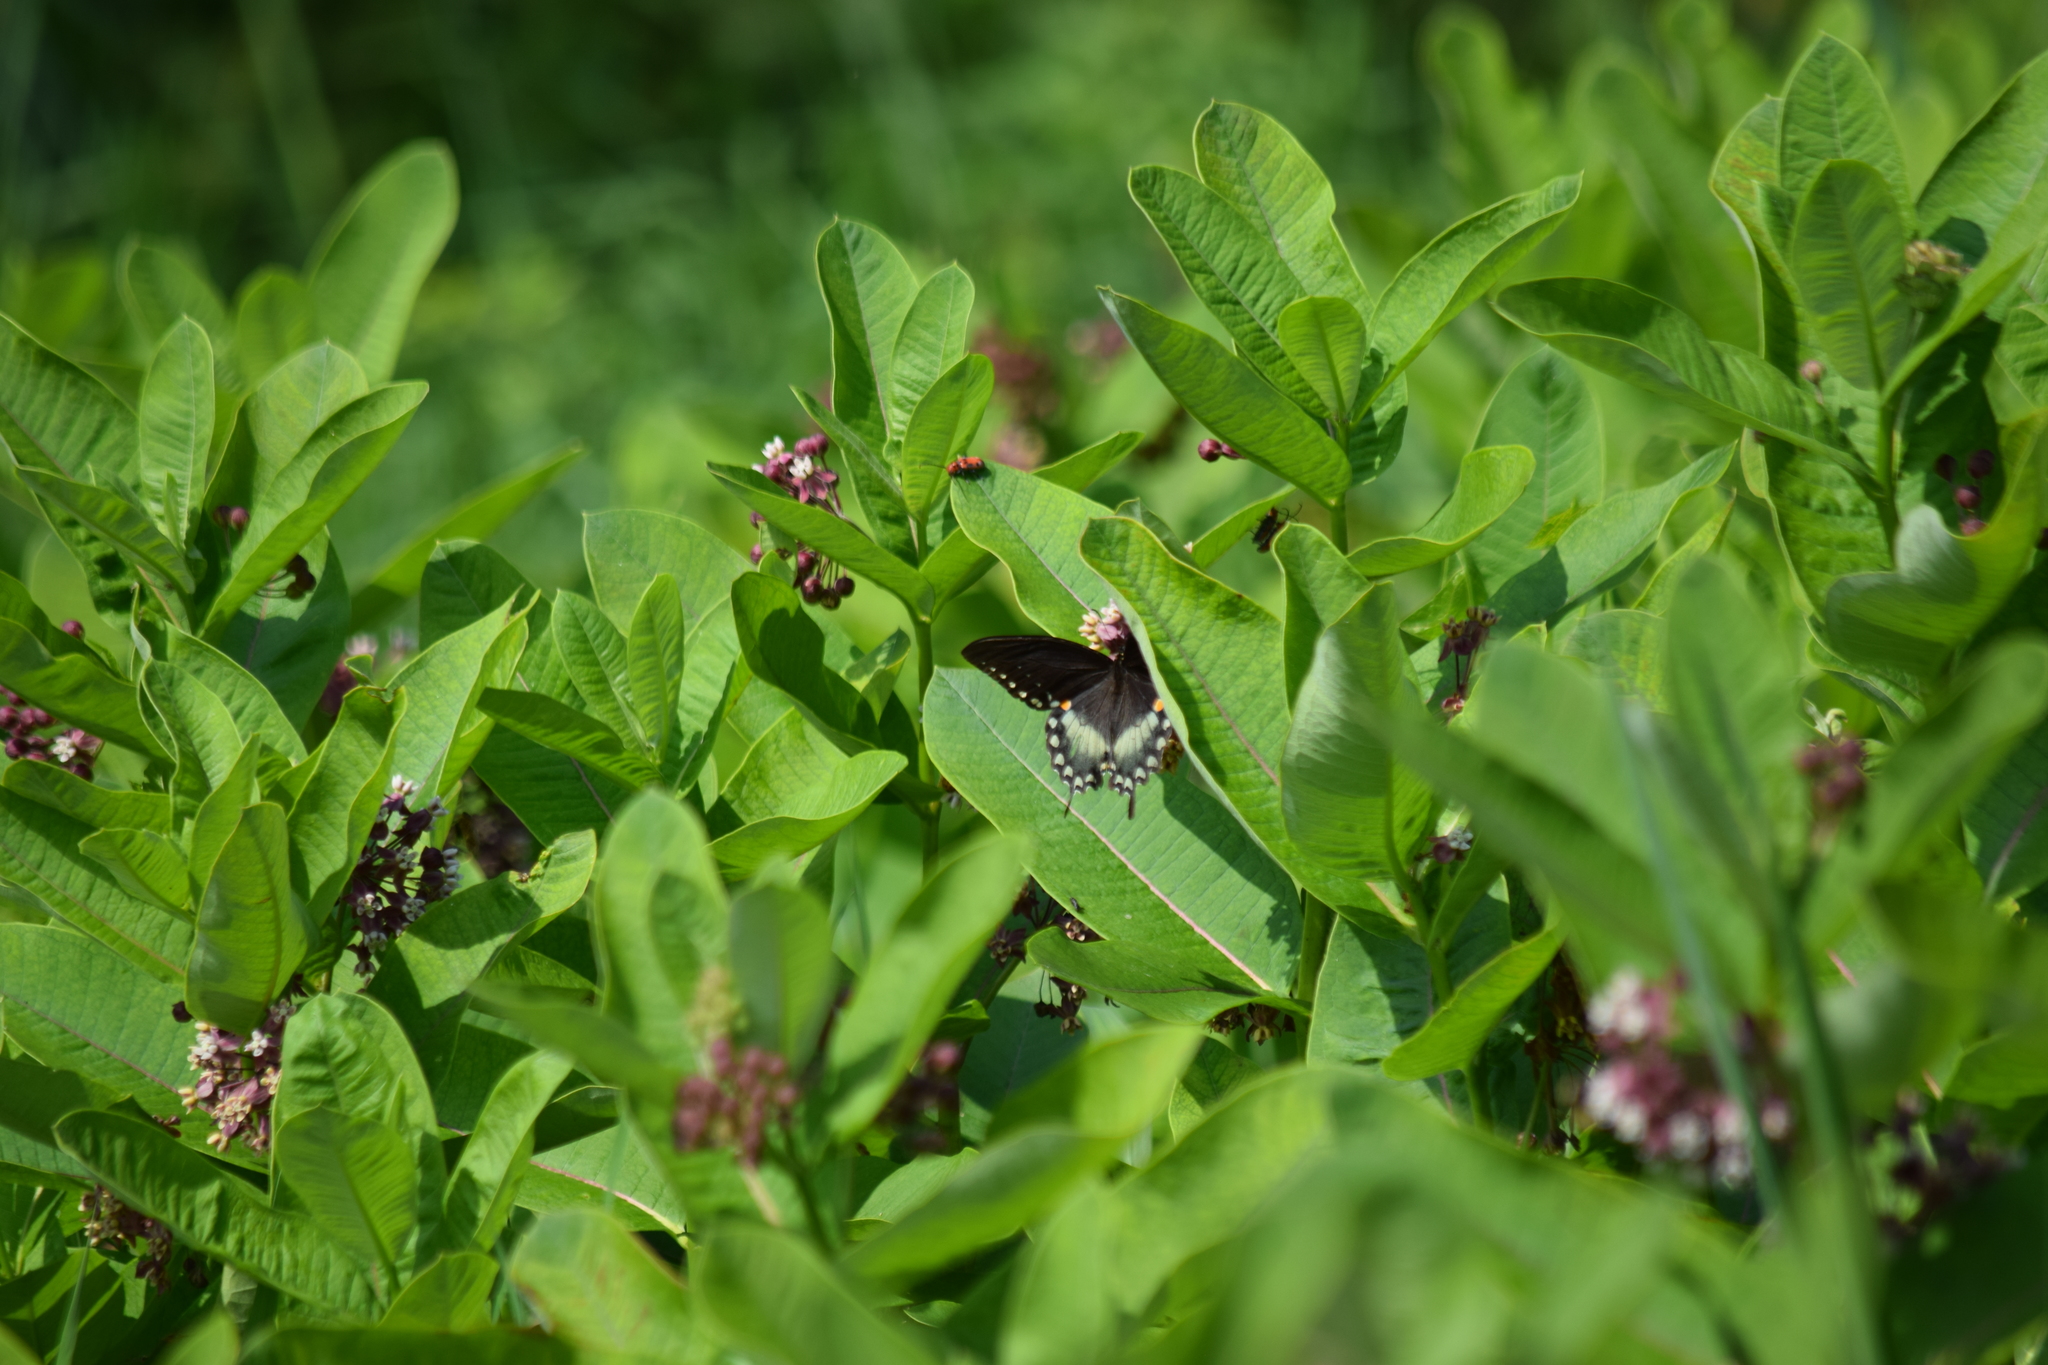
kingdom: Animalia
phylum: Arthropoda
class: Insecta
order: Lepidoptera
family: Papilionidae
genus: Papilio
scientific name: Papilio troilus
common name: Spicebush swallowtail
